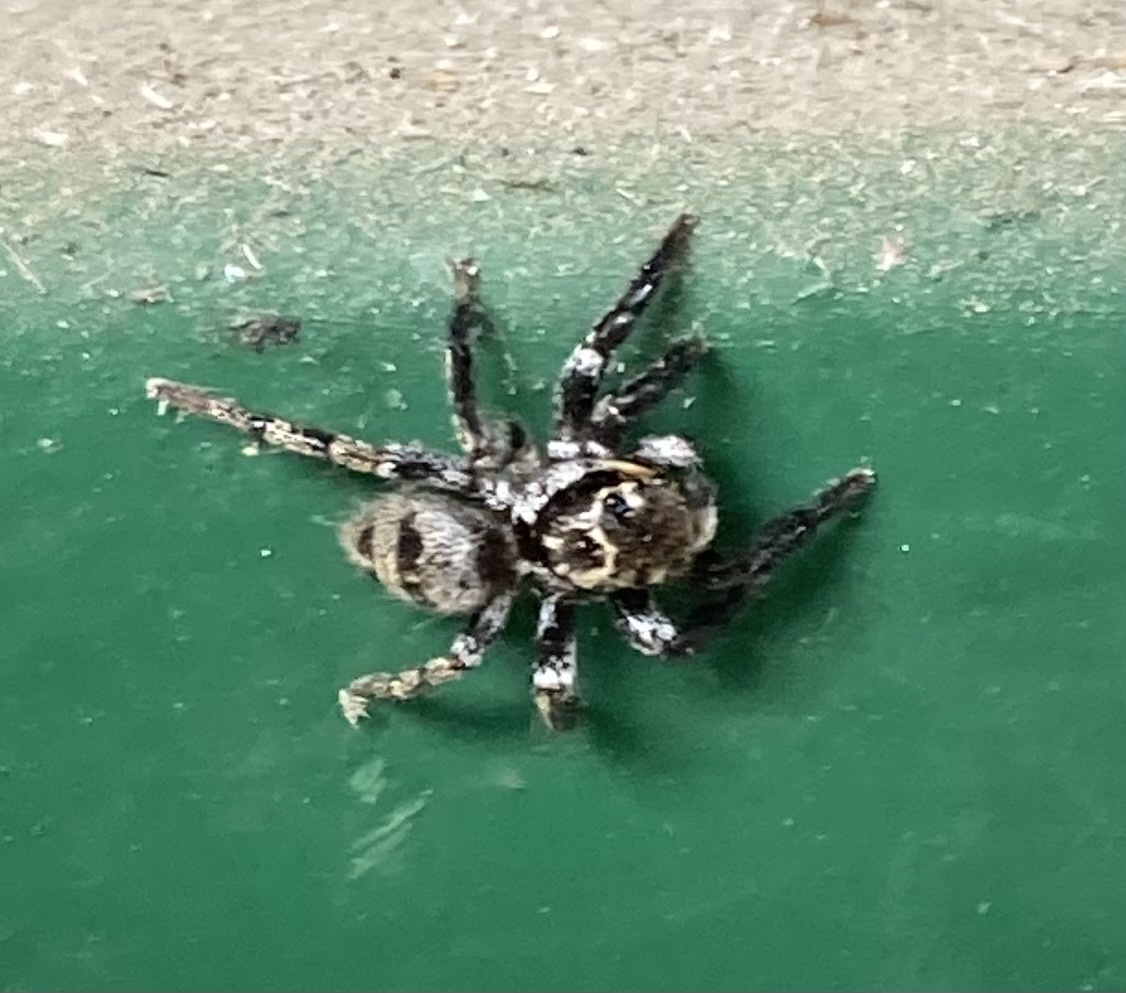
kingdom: Animalia
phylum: Arthropoda
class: Arachnida
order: Araneae
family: Salticidae
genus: Corythalia
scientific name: Corythalia conferta
